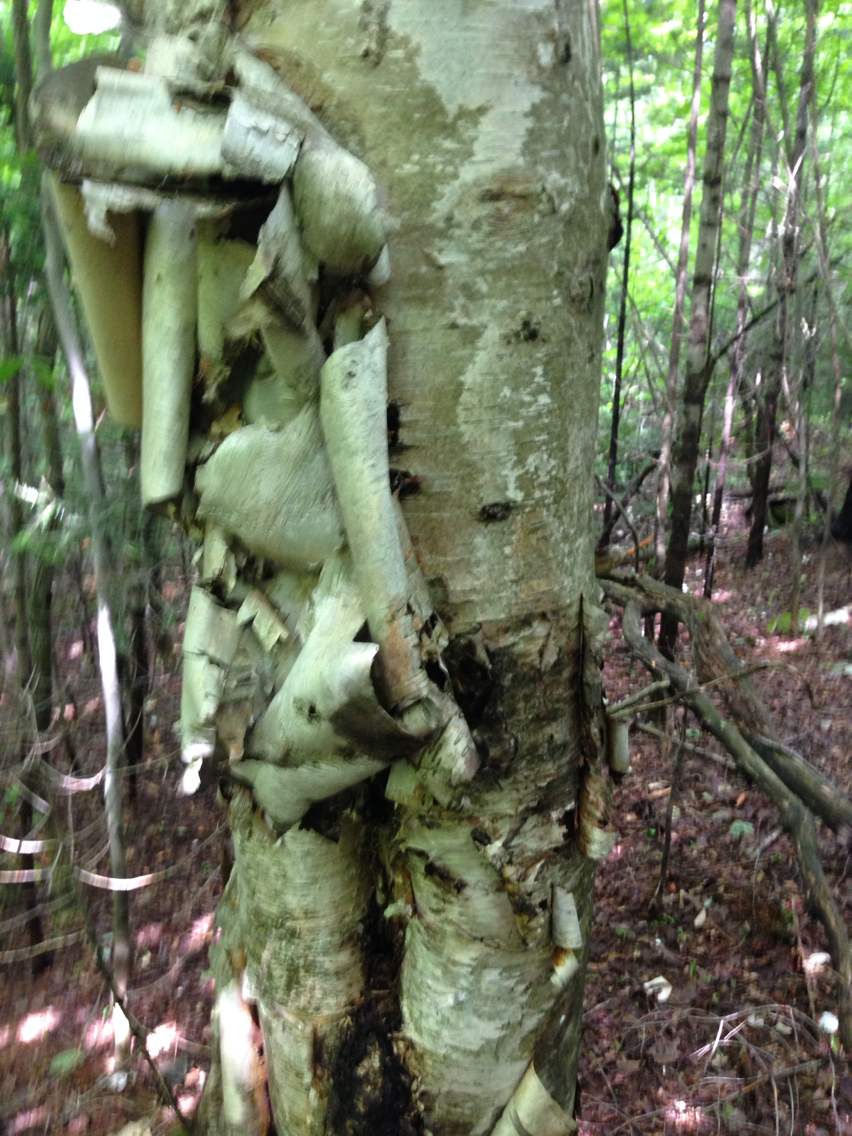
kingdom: Plantae
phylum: Tracheophyta
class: Magnoliopsida
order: Fagales
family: Betulaceae
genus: Betula
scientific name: Betula papyrifera
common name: Paper birch
